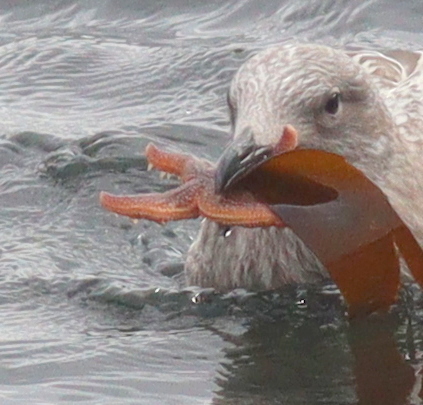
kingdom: Animalia
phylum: Echinodermata
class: Asteroidea
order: Forcipulatida
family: Asteriidae
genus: Asterias
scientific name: Asterias rubens
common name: Common starfish
